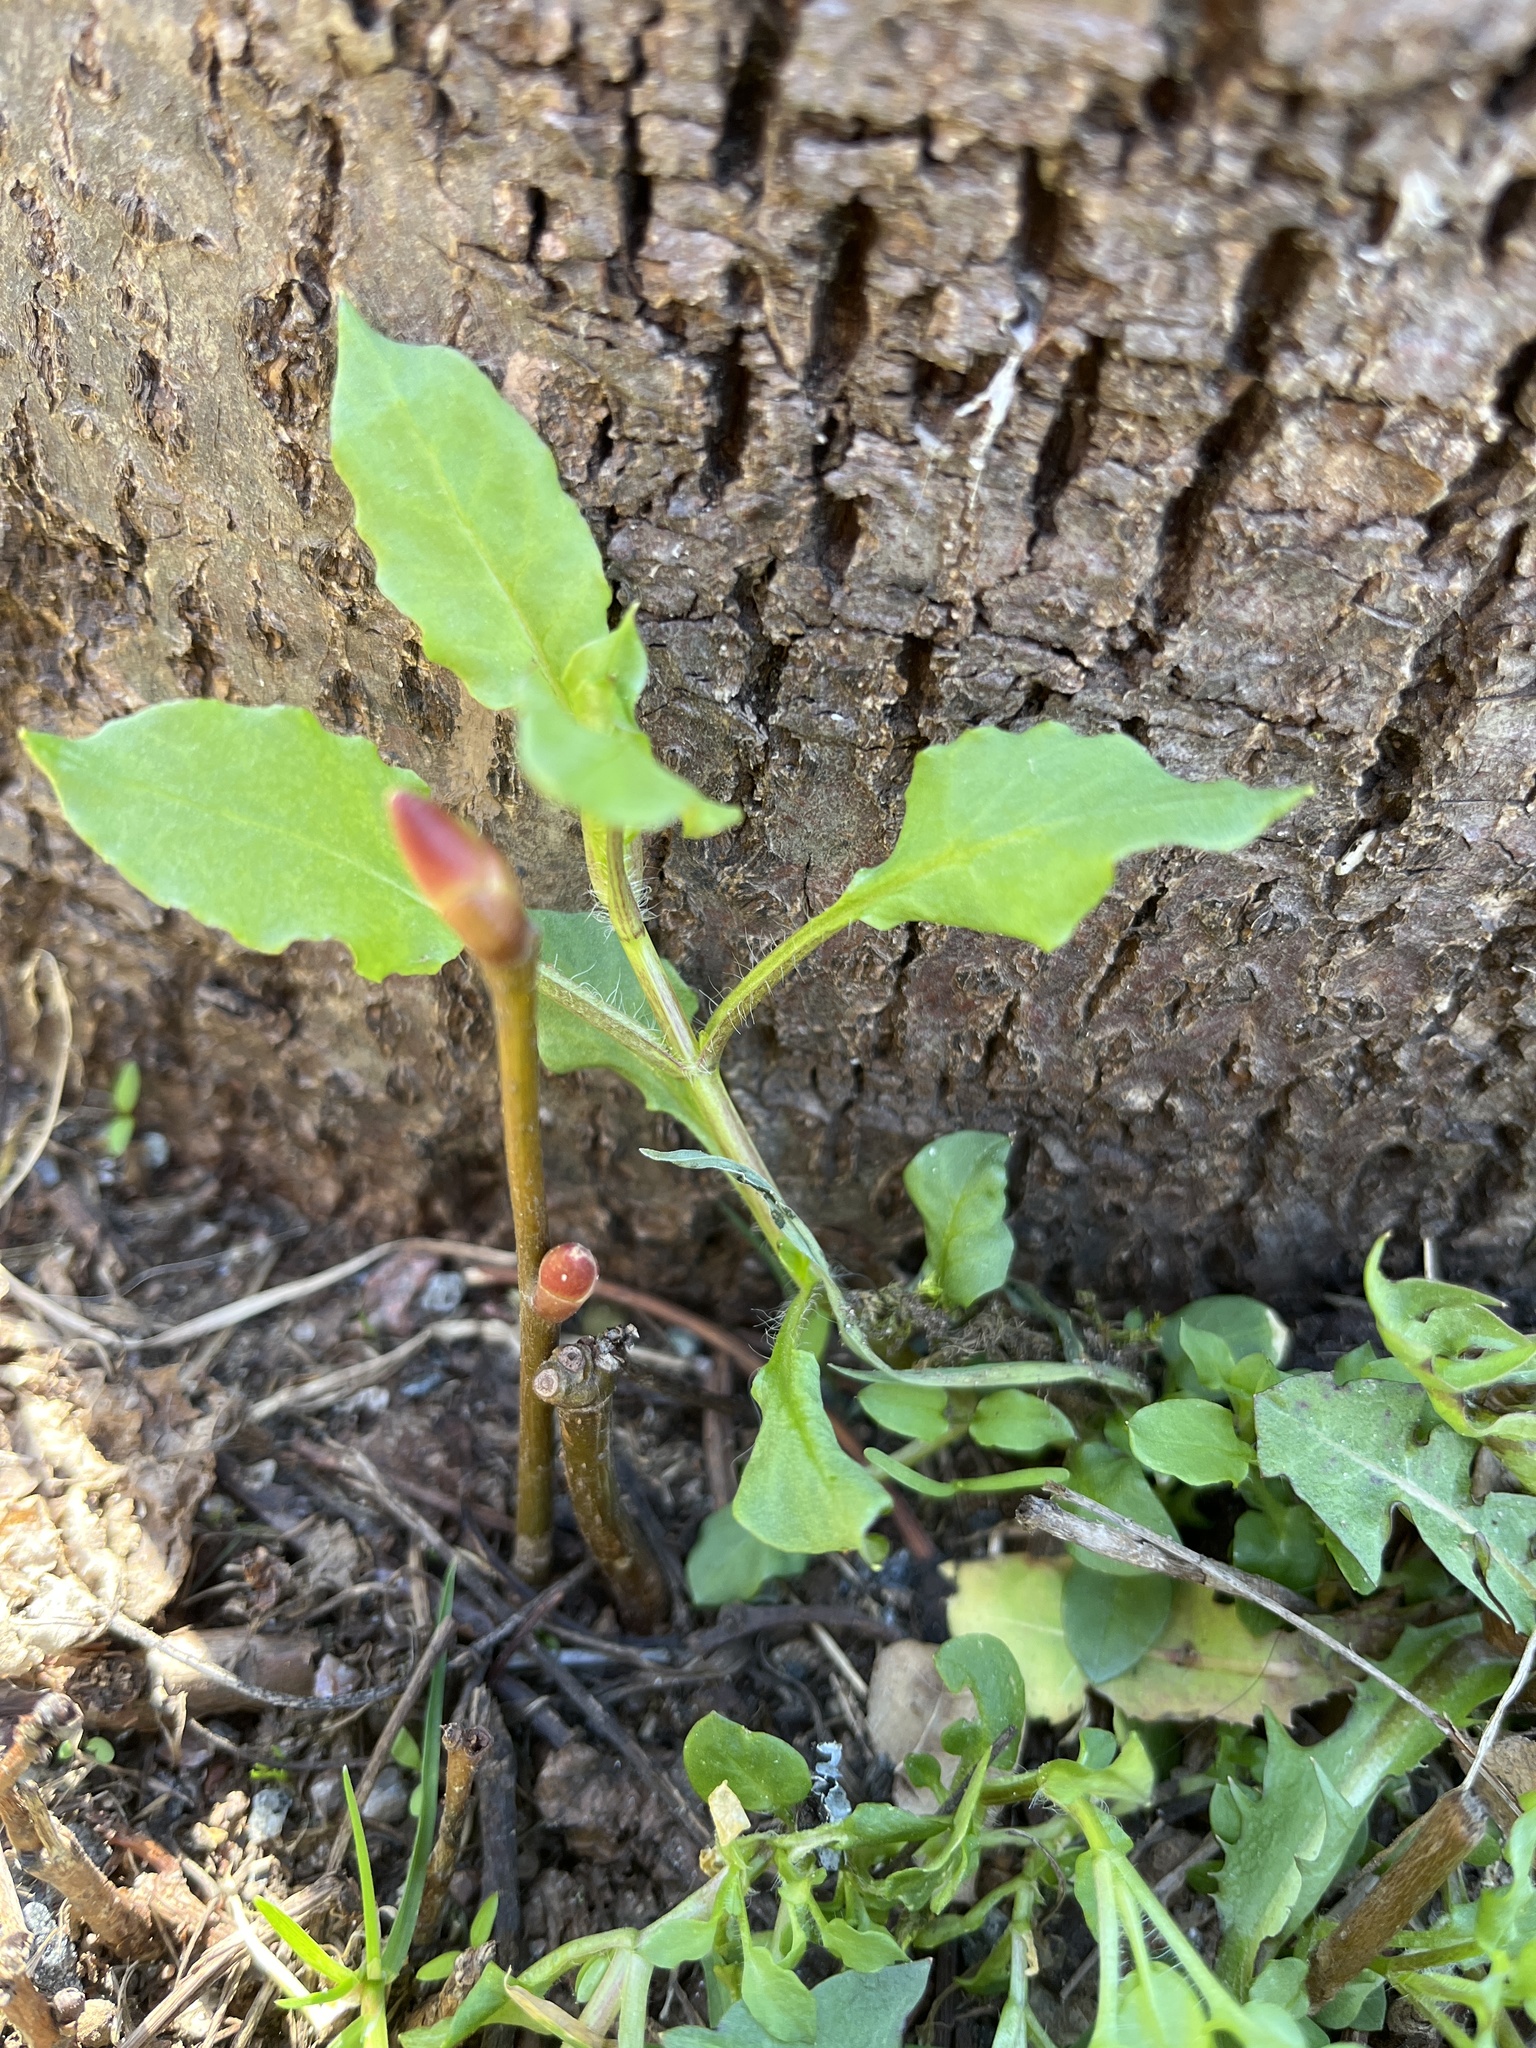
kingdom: Plantae
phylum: Tracheophyta
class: Magnoliopsida
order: Caryophyllales
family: Caryophyllaceae
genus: Stellaria
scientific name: Stellaria nemorum
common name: Wood stitchwort
